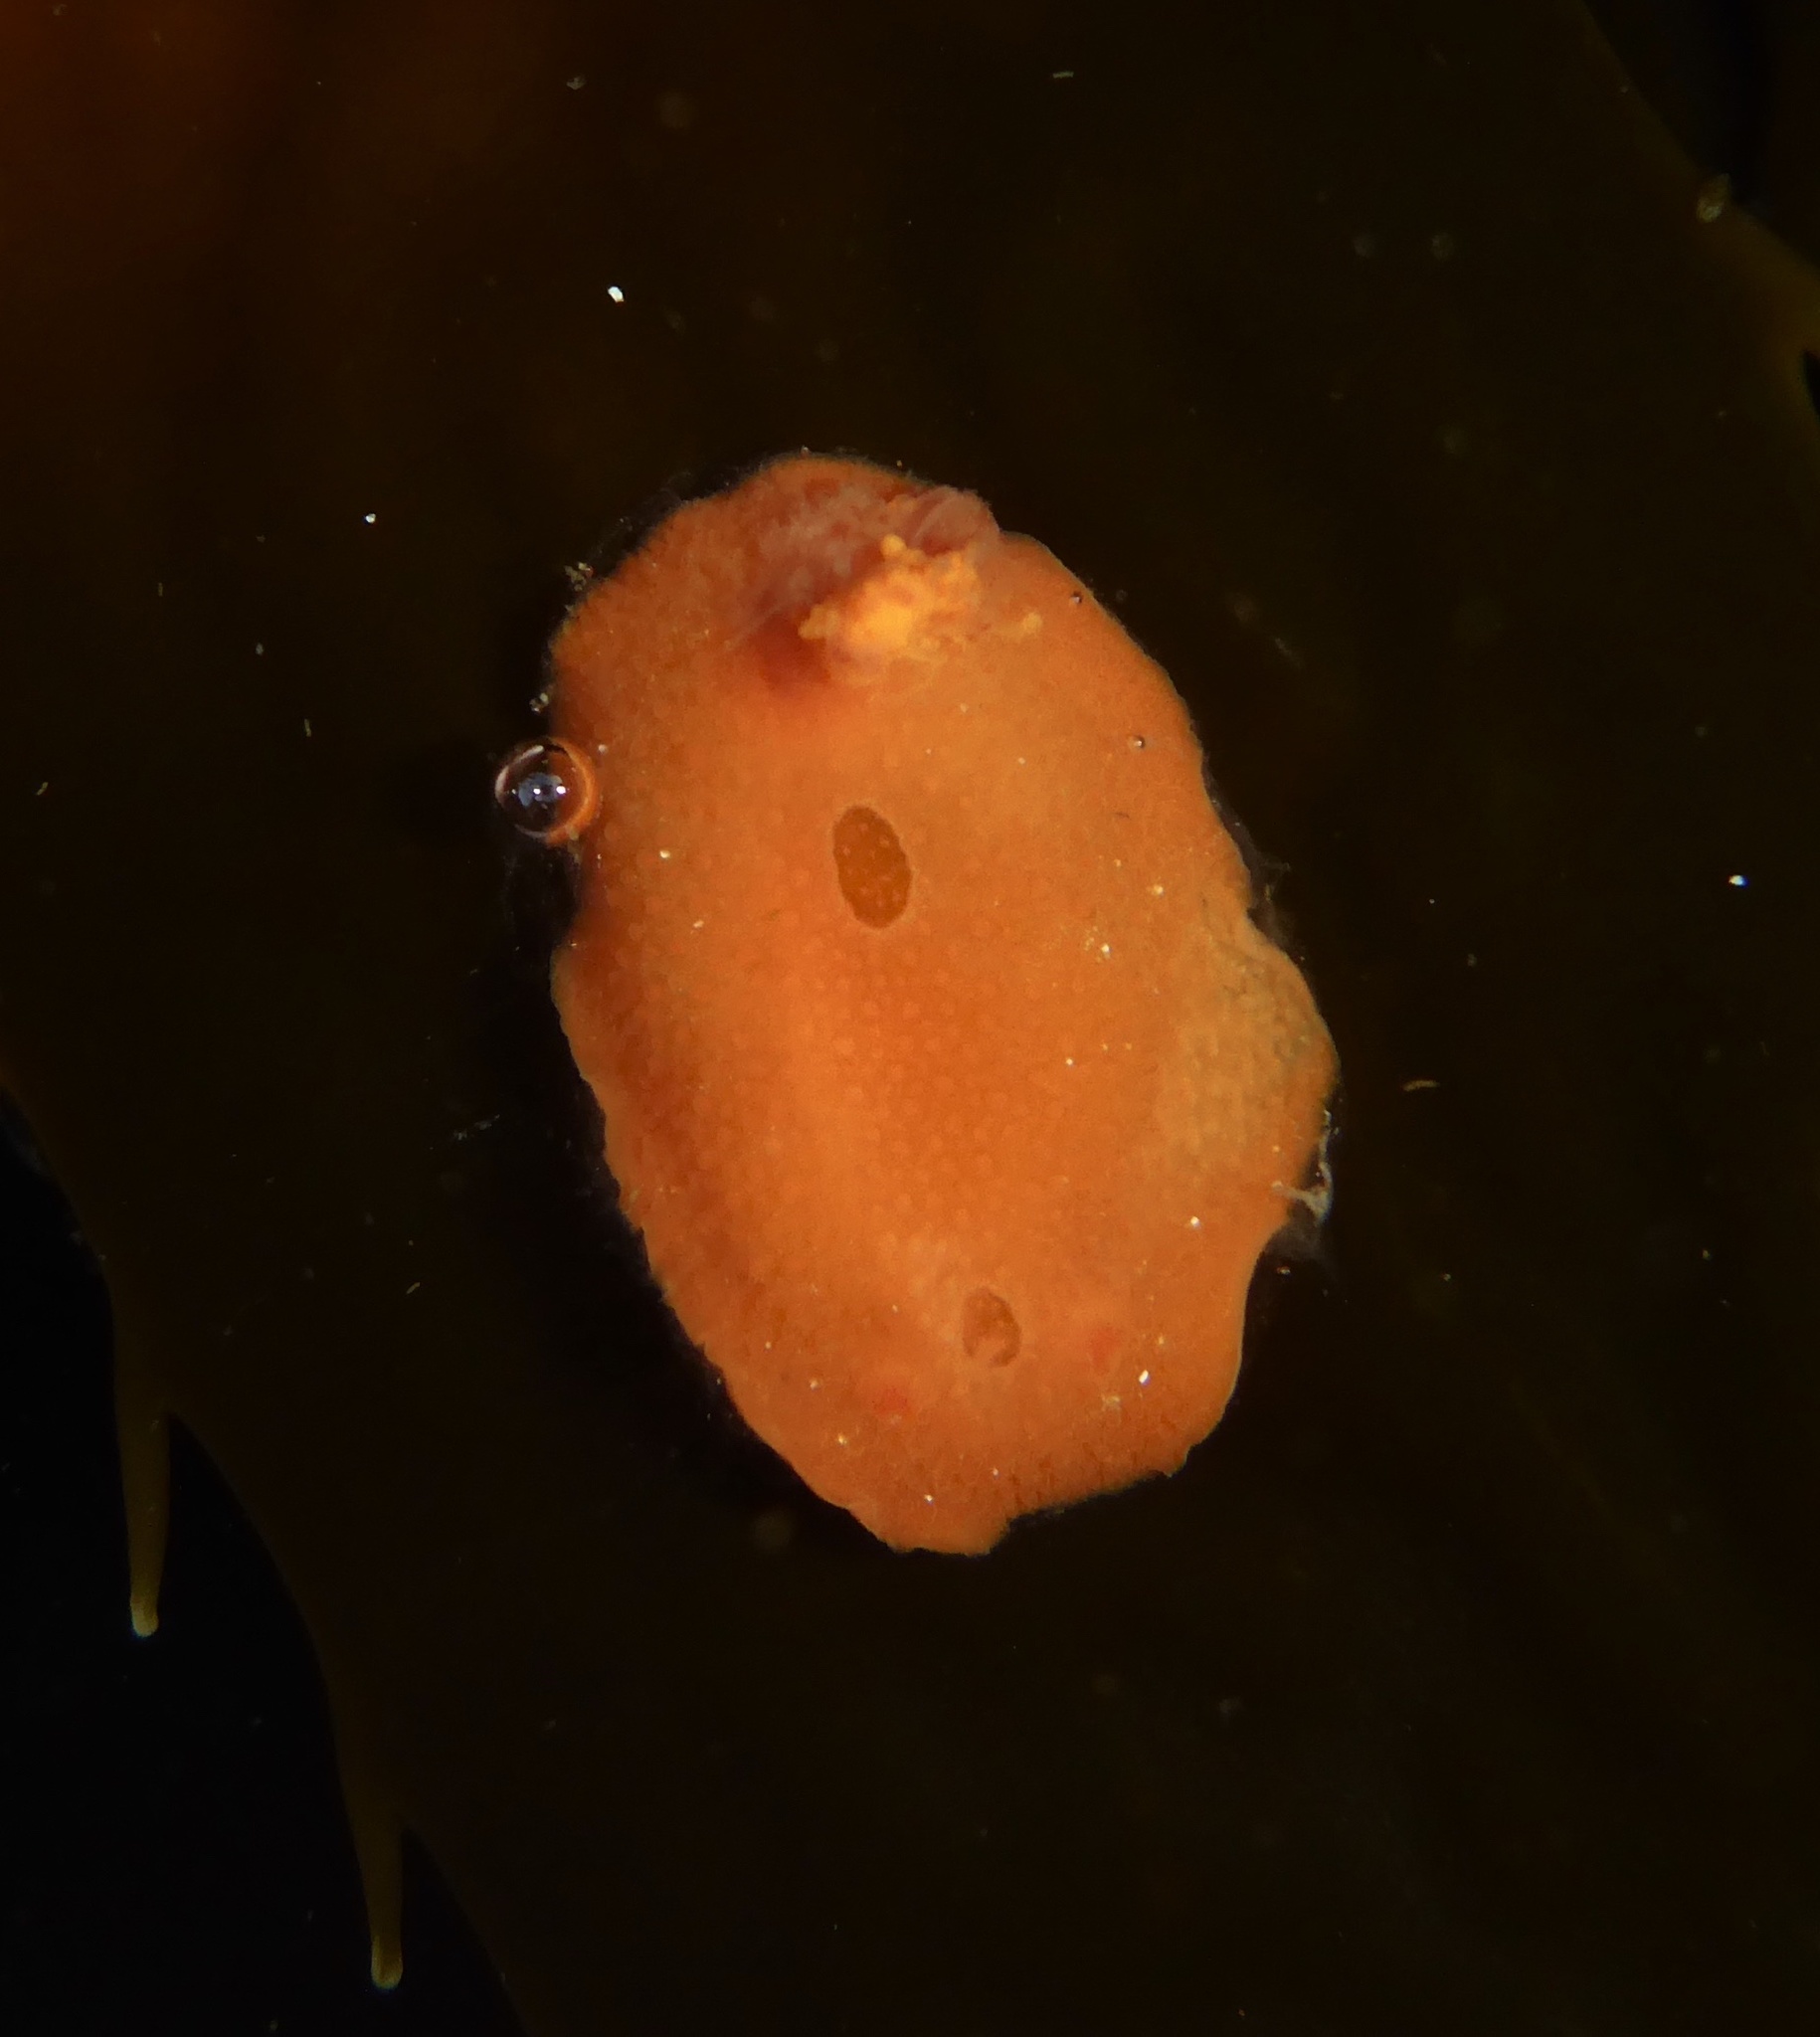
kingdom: Animalia
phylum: Mollusca
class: Gastropoda
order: Nudibranchia
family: Cadlinidae
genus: Aldisa
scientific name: Aldisa sanguinea
